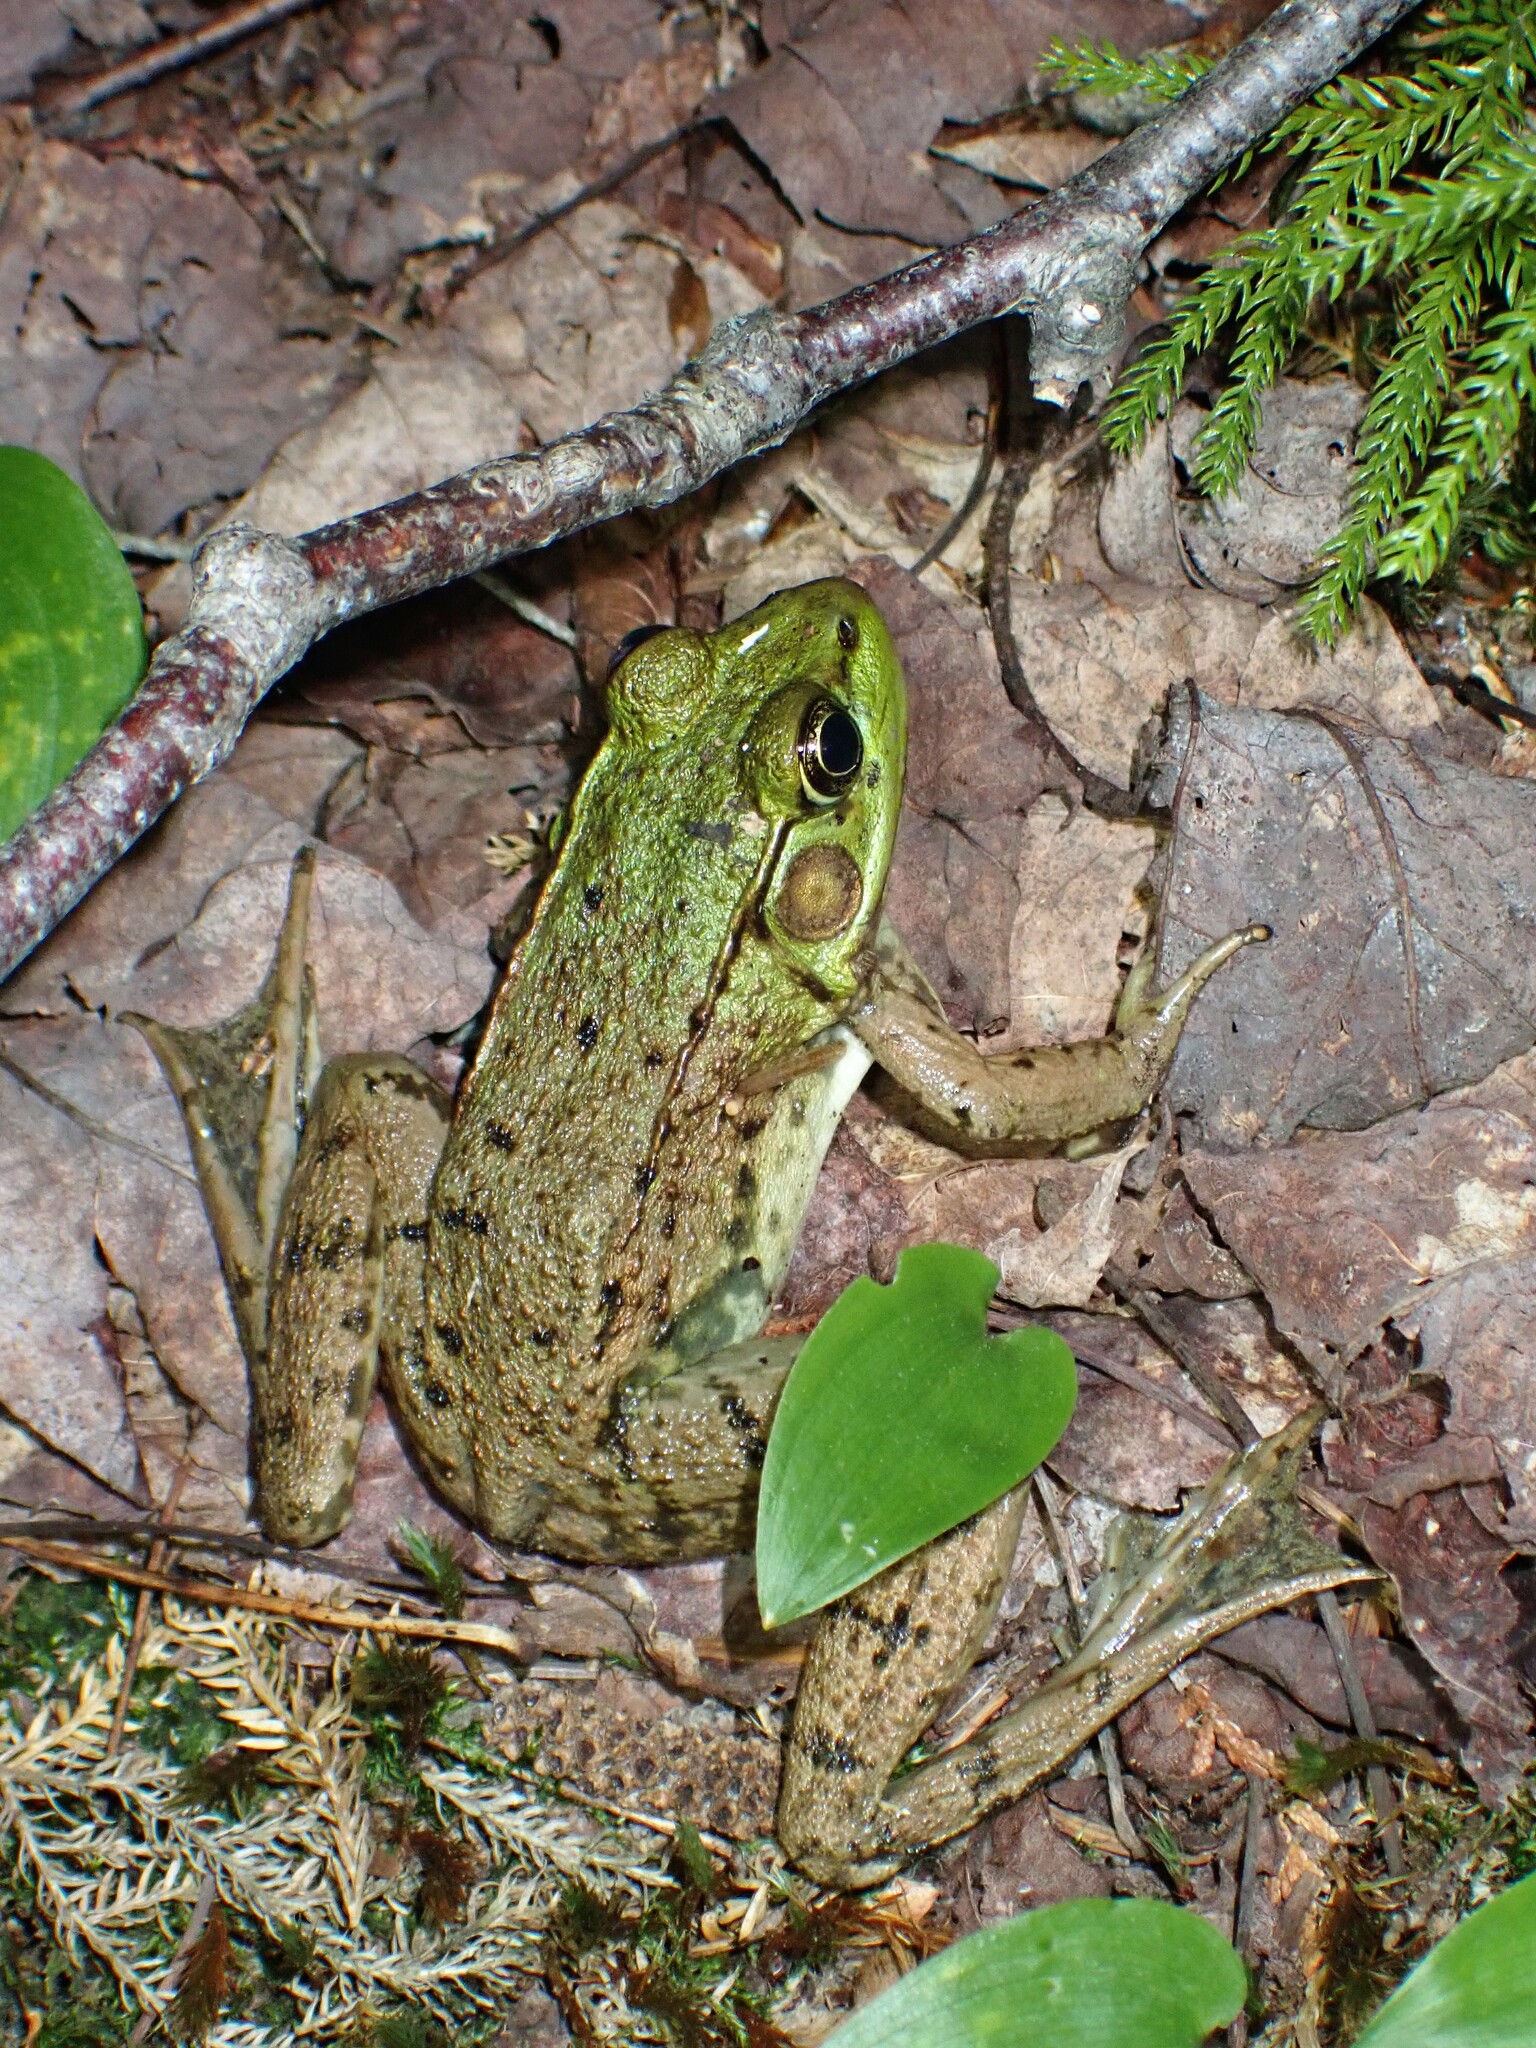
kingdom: Animalia
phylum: Chordata
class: Amphibia
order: Anura
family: Ranidae
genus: Lithobates
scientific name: Lithobates clamitans
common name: Green frog
